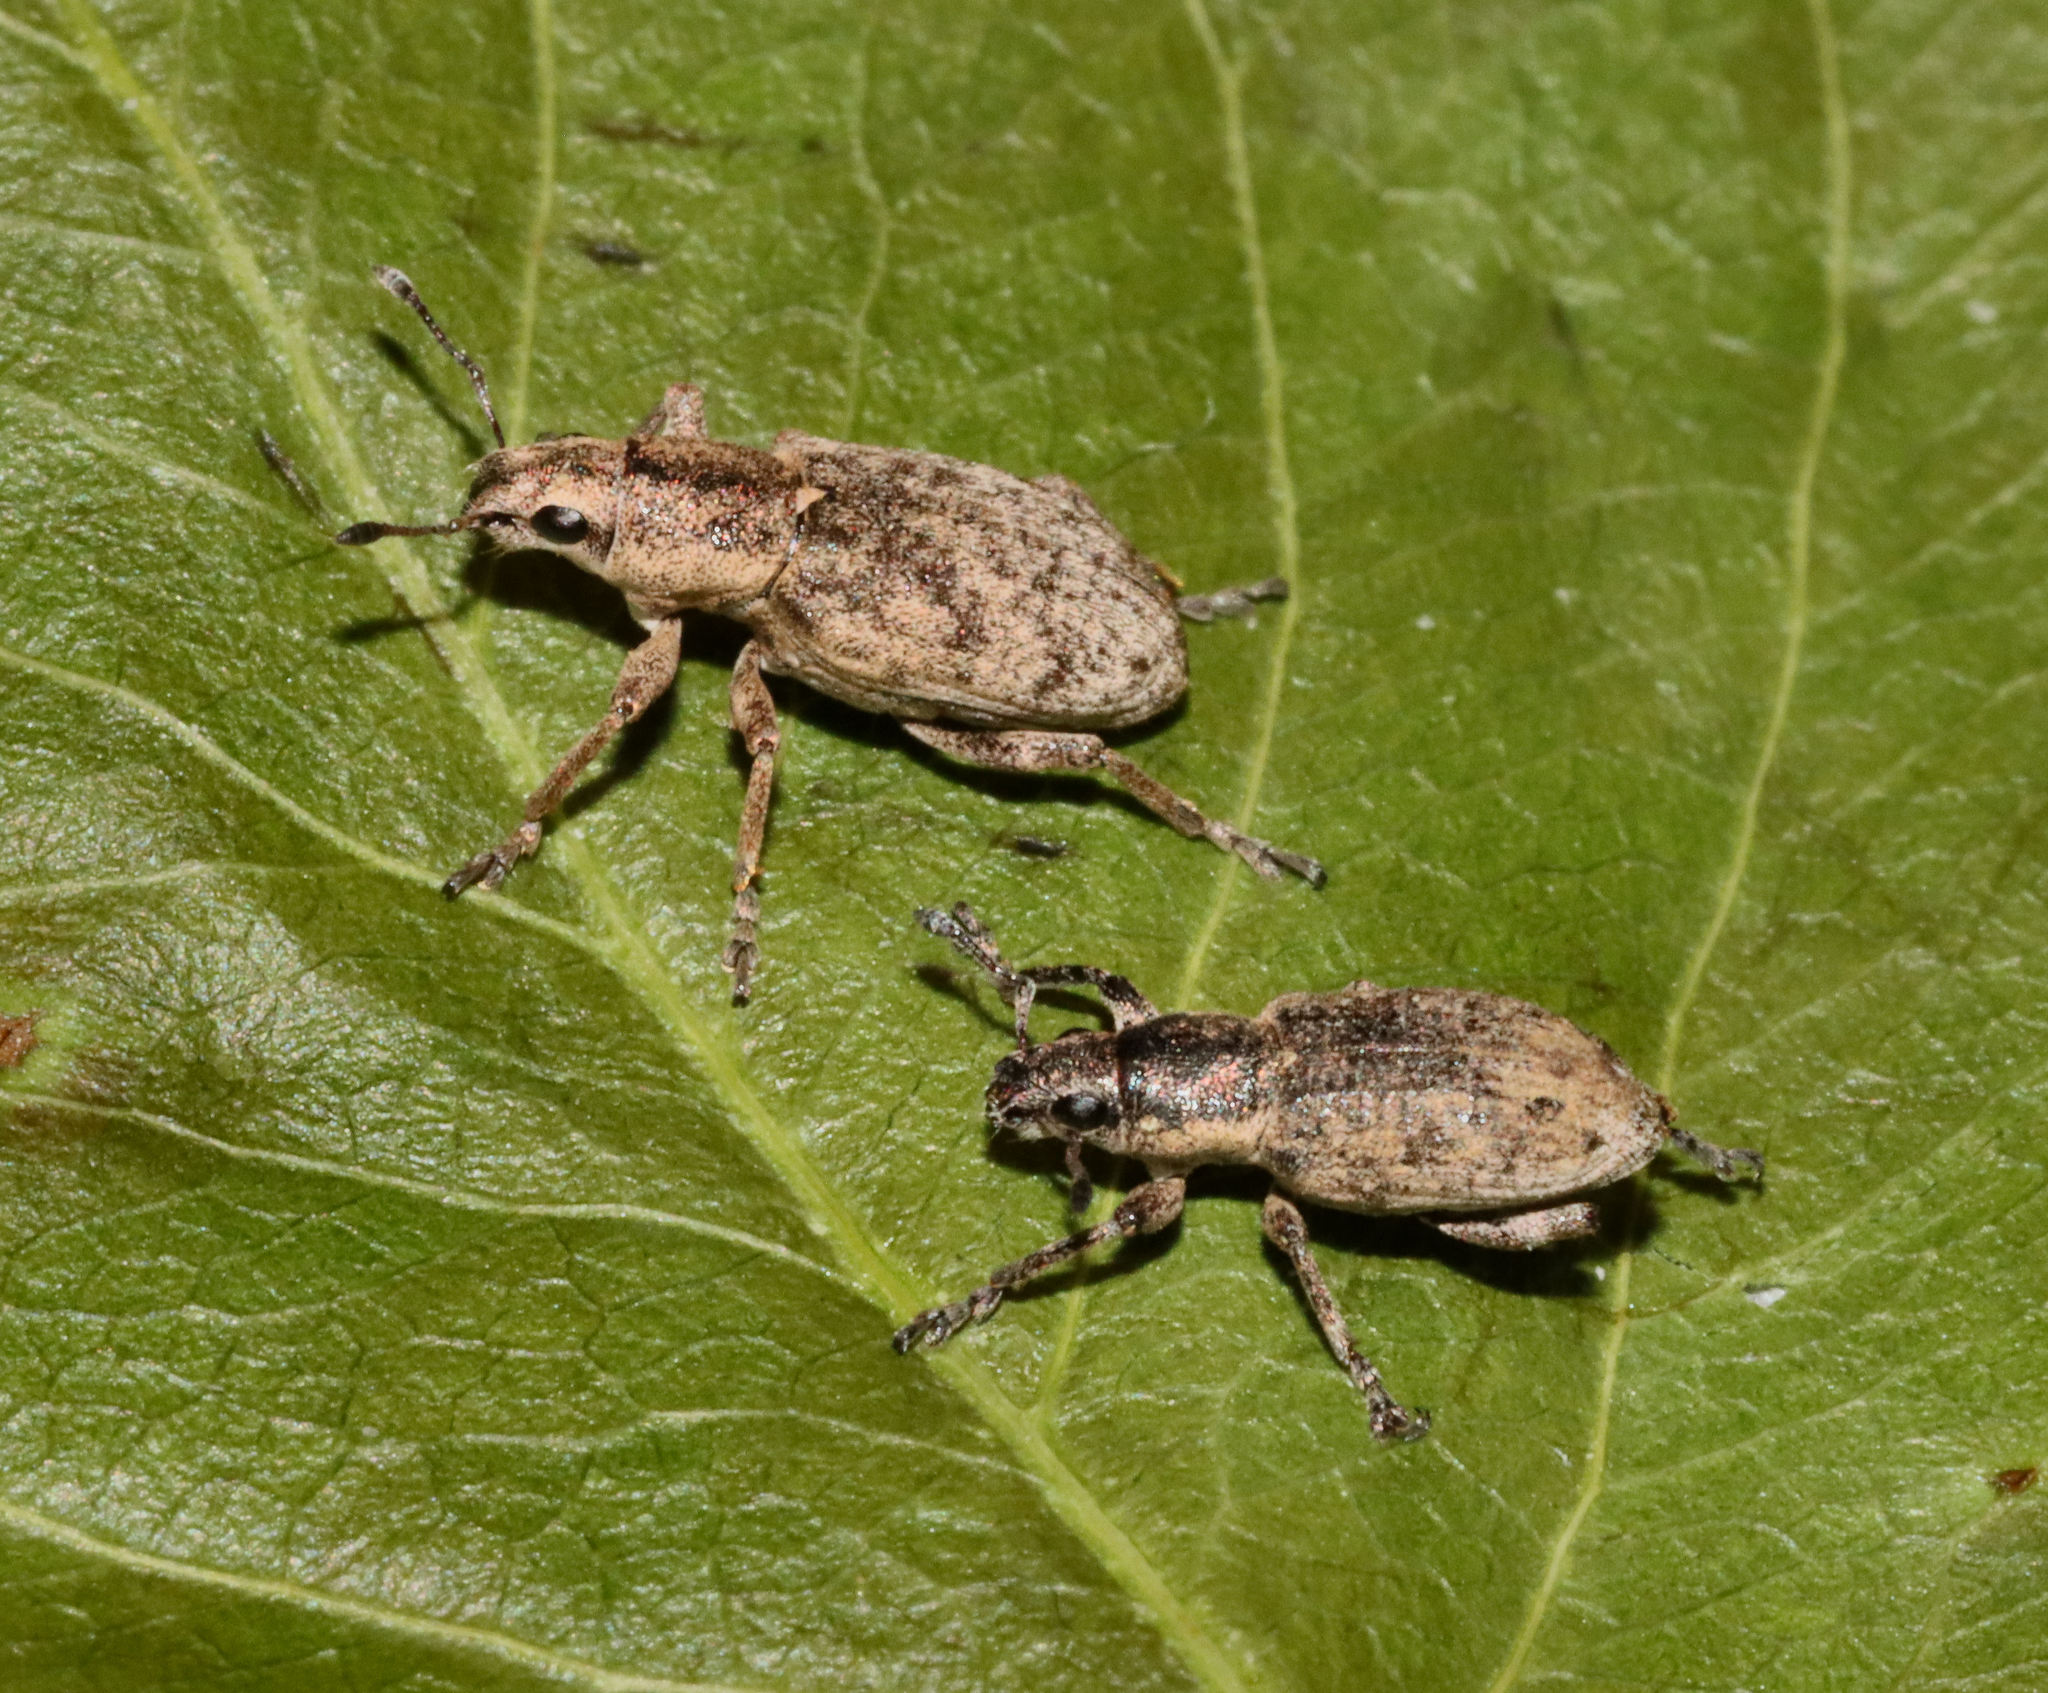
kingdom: Animalia
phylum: Arthropoda
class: Insecta
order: Coleoptera
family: Curculionidae
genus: Tanymecus
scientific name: Tanymecus confusus
